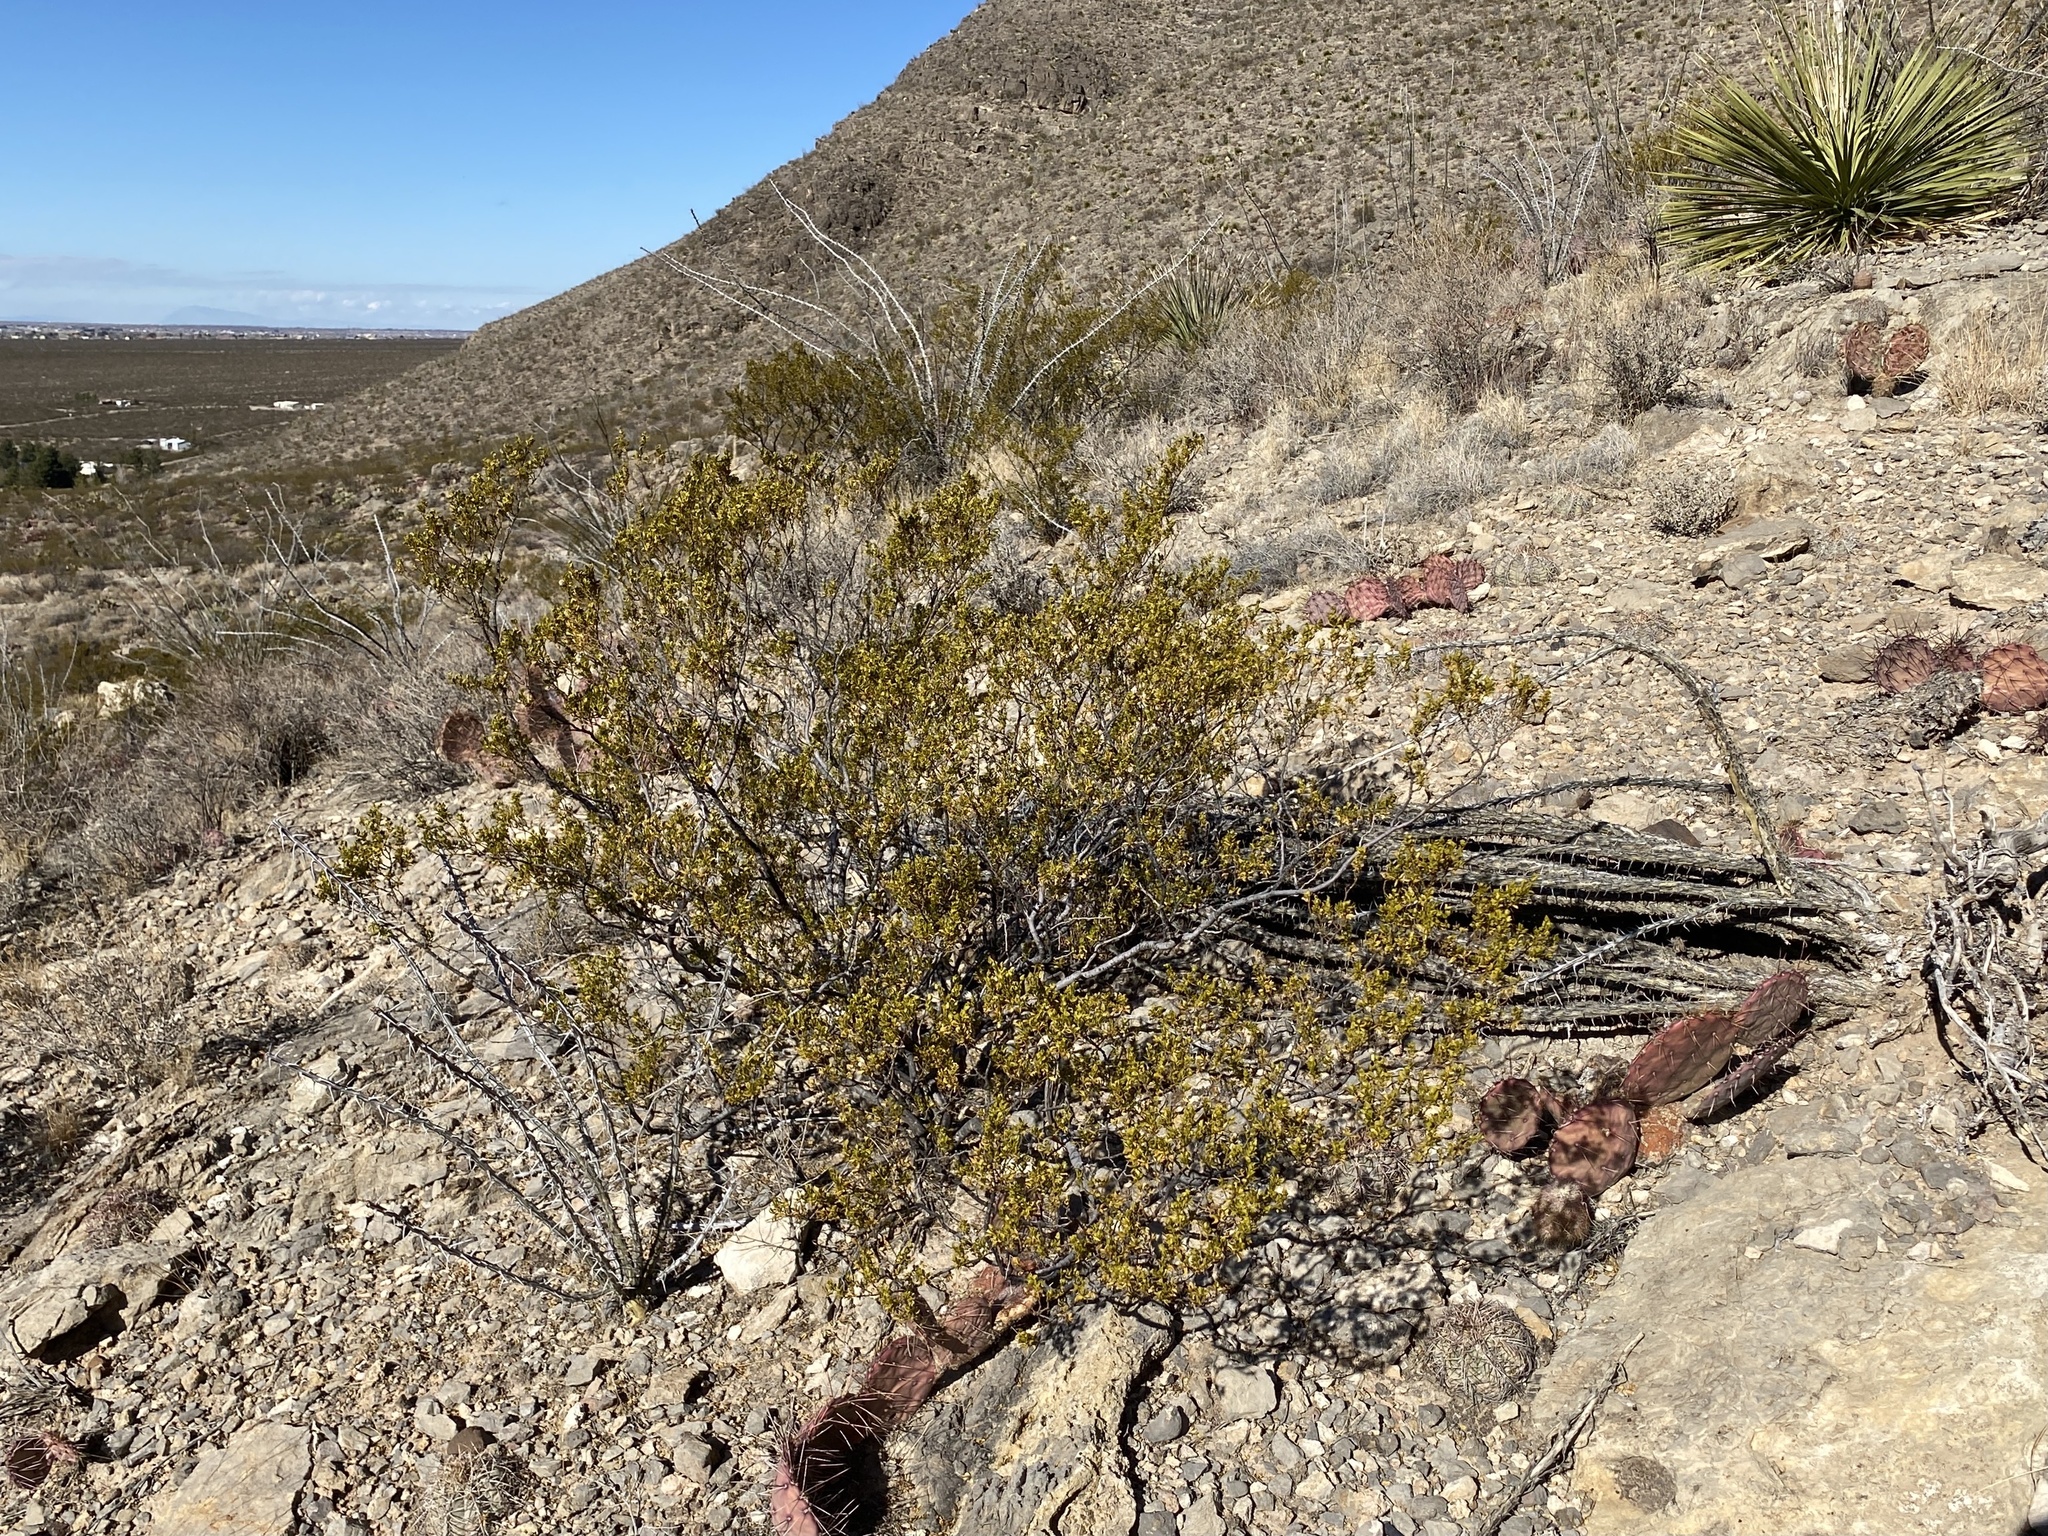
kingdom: Plantae
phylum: Tracheophyta
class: Magnoliopsida
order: Zygophyllales
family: Zygophyllaceae
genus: Larrea
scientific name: Larrea tridentata
